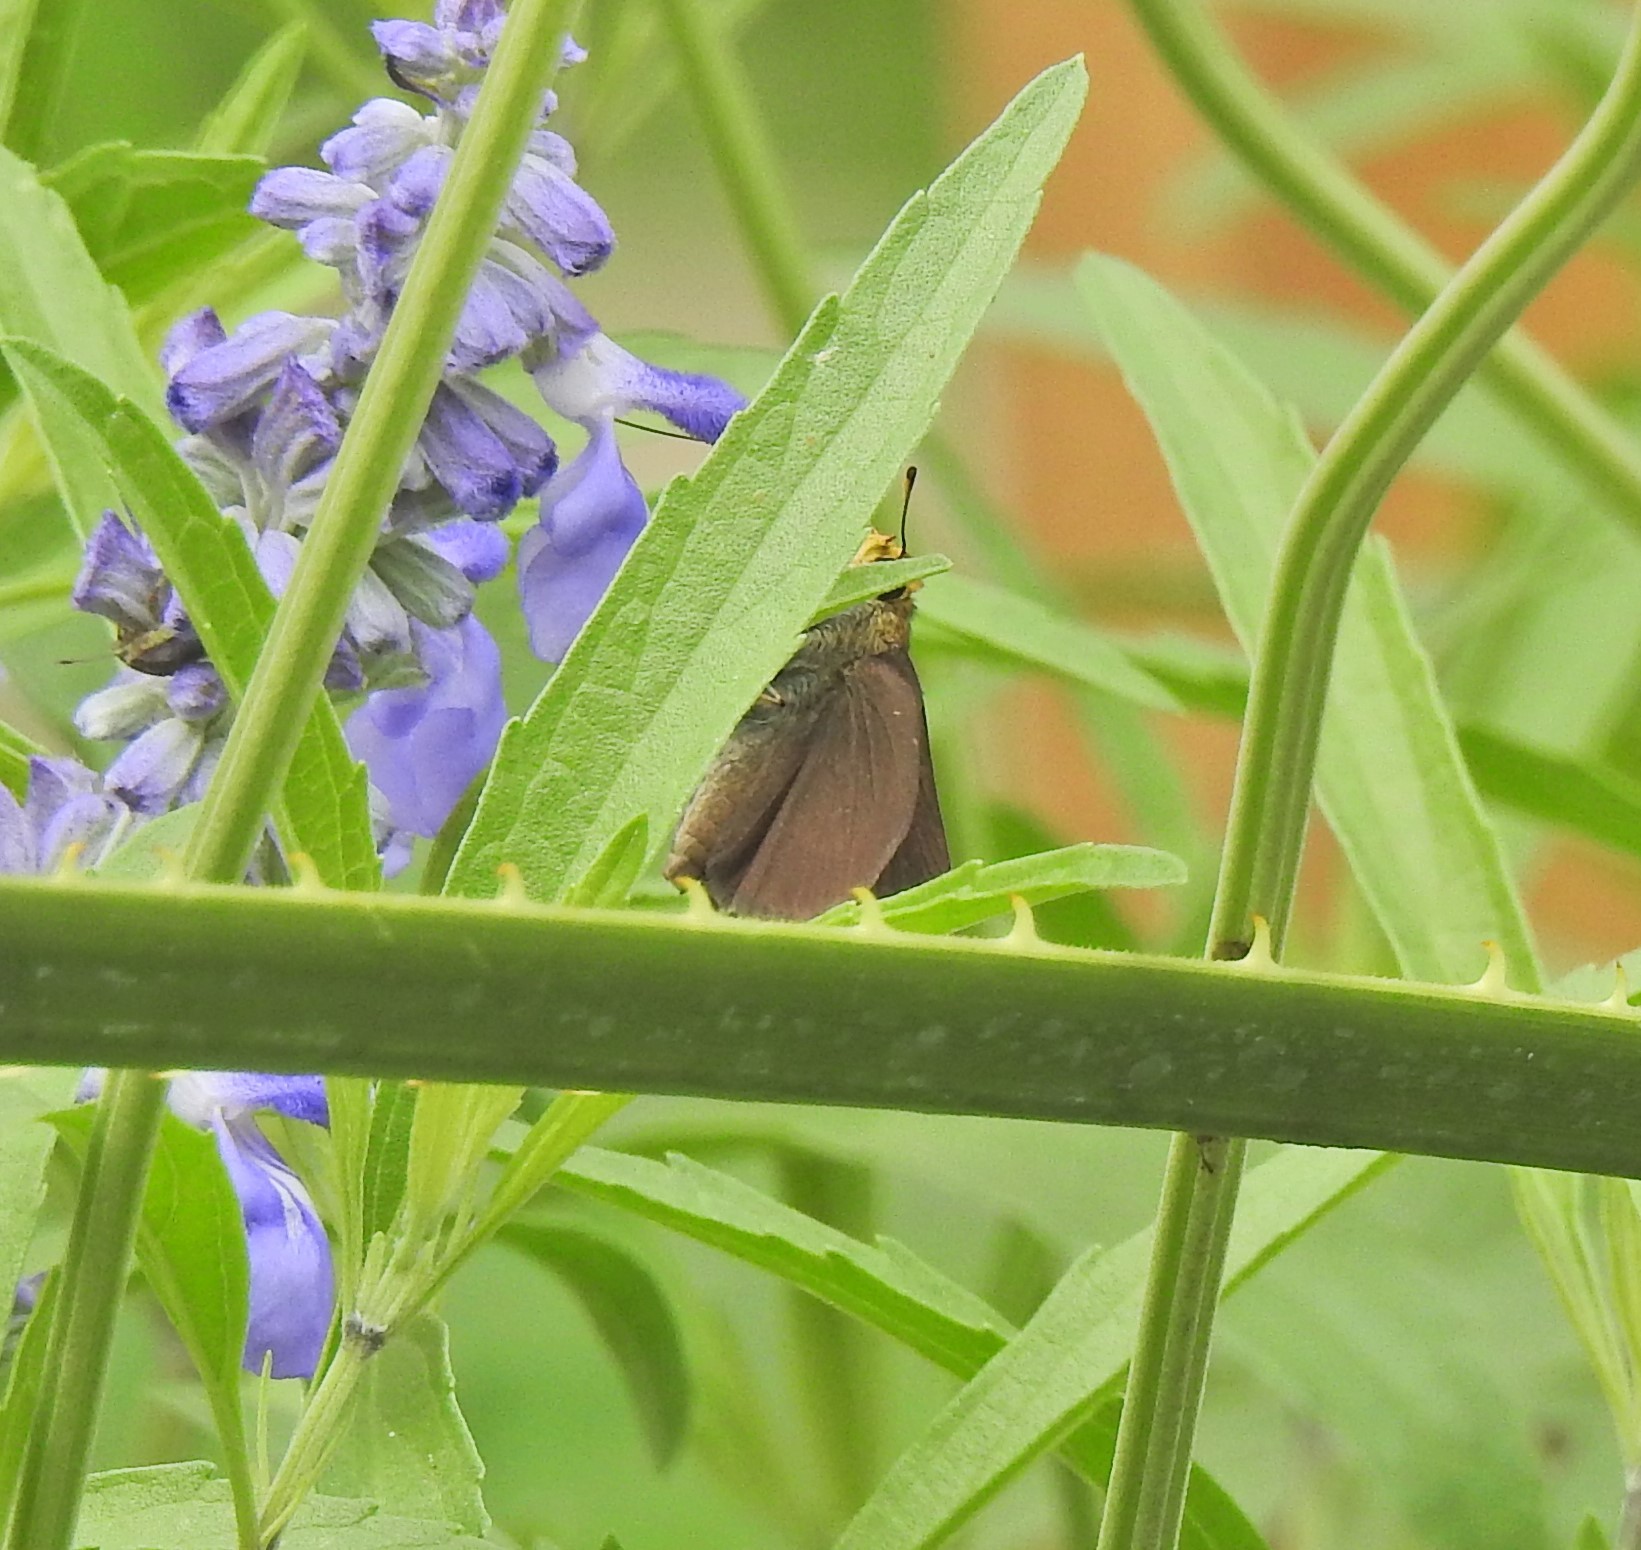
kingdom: Animalia
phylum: Arthropoda
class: Insecta
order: Lepidoptera
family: Hesperiidae
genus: Euphyes
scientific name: Euphyes vestris
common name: Dun skipper
